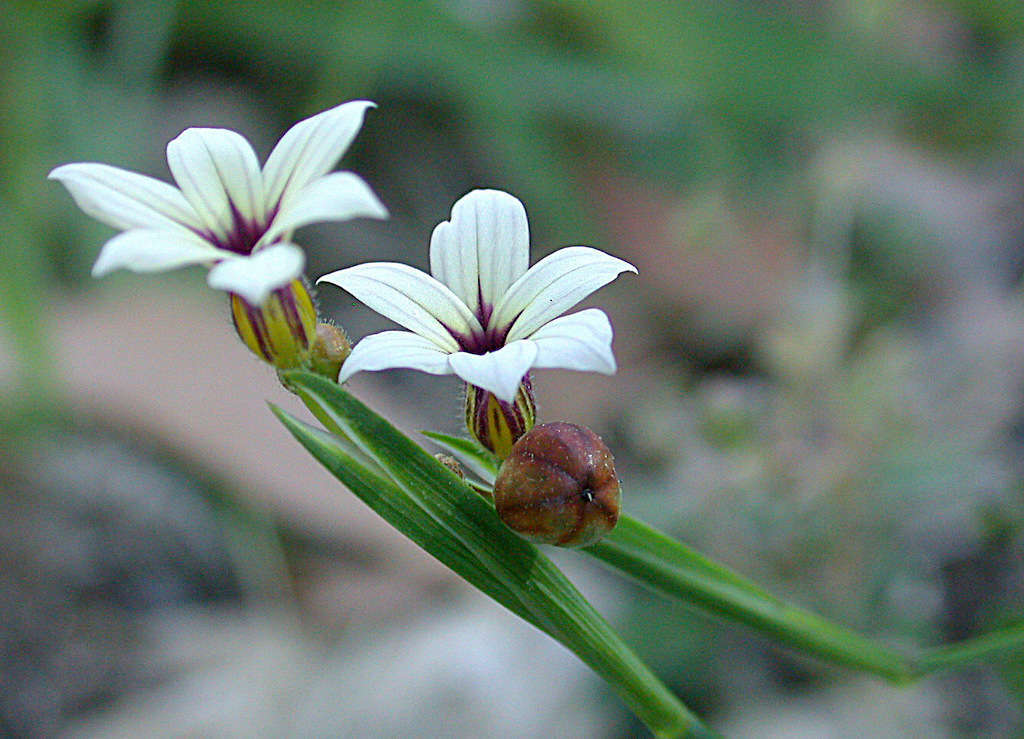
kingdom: Plantae
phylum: Tracheophyta
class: Liliopsida
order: Asparagales
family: Iridaceae
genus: Sisyrinchium
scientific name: Sisyrinchium micranthum
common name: Bermuda pigroot
